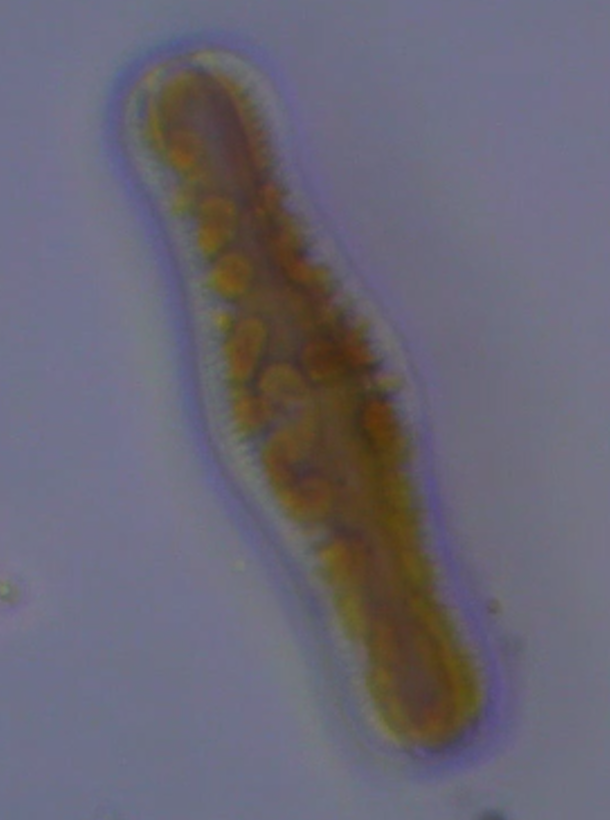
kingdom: Chromista
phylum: Ochrophyta
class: Bacillariophyceae
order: Rhopalodiales
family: Rhopalodiaceae
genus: Epithemia
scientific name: Epithemia gibba
